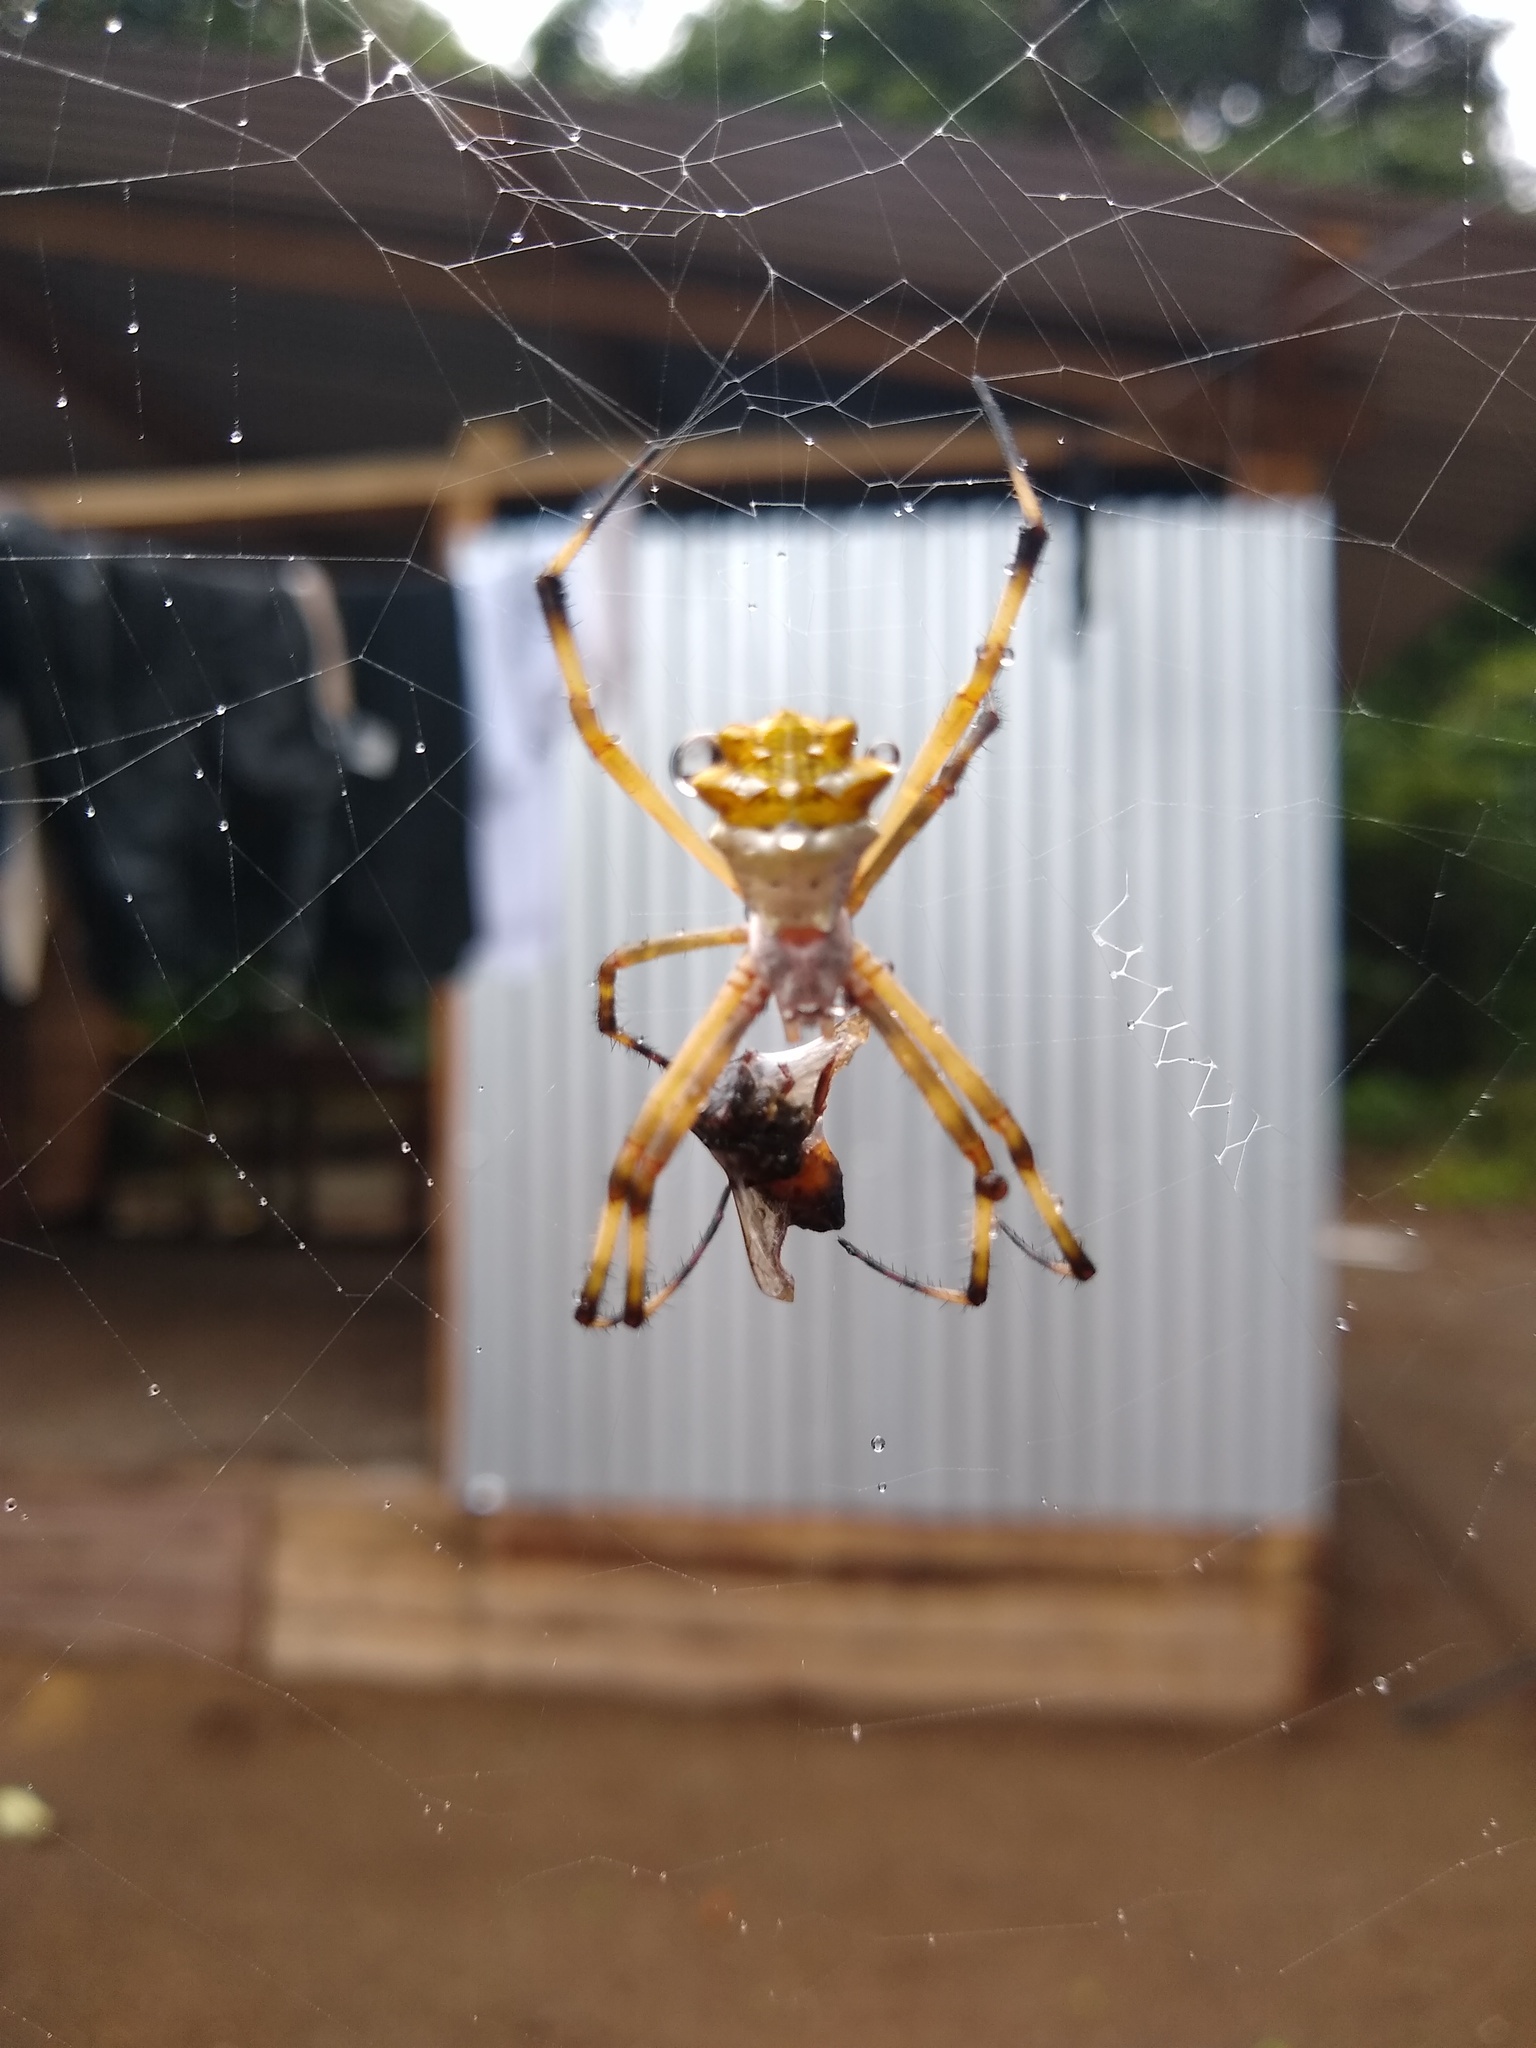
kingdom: Animalia
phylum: Arthropoda
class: Arachnida
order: Araneae
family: Araneidae
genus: Argiope
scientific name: Argiope argentata
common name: Orb weavers
